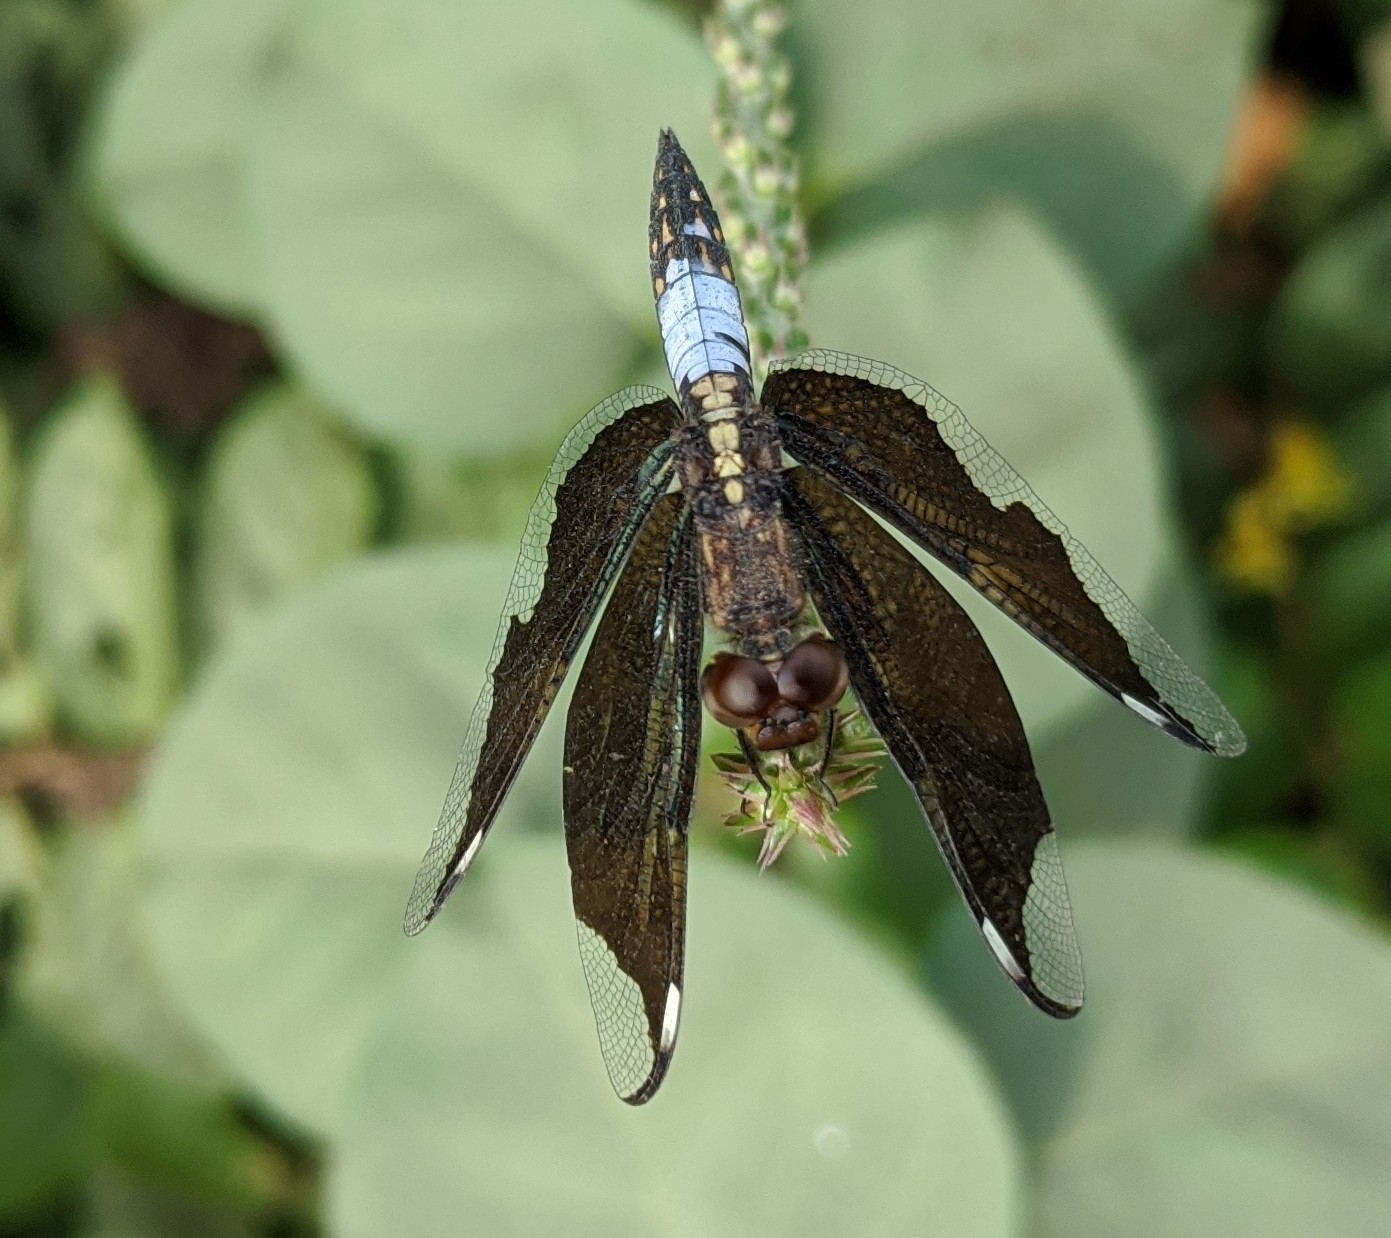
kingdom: Animalia
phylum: Arthropoda
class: Insecta
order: Odonata
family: Libellulidae
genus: Palpopleura
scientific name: Palpopleura lucia
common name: Lucia widow
